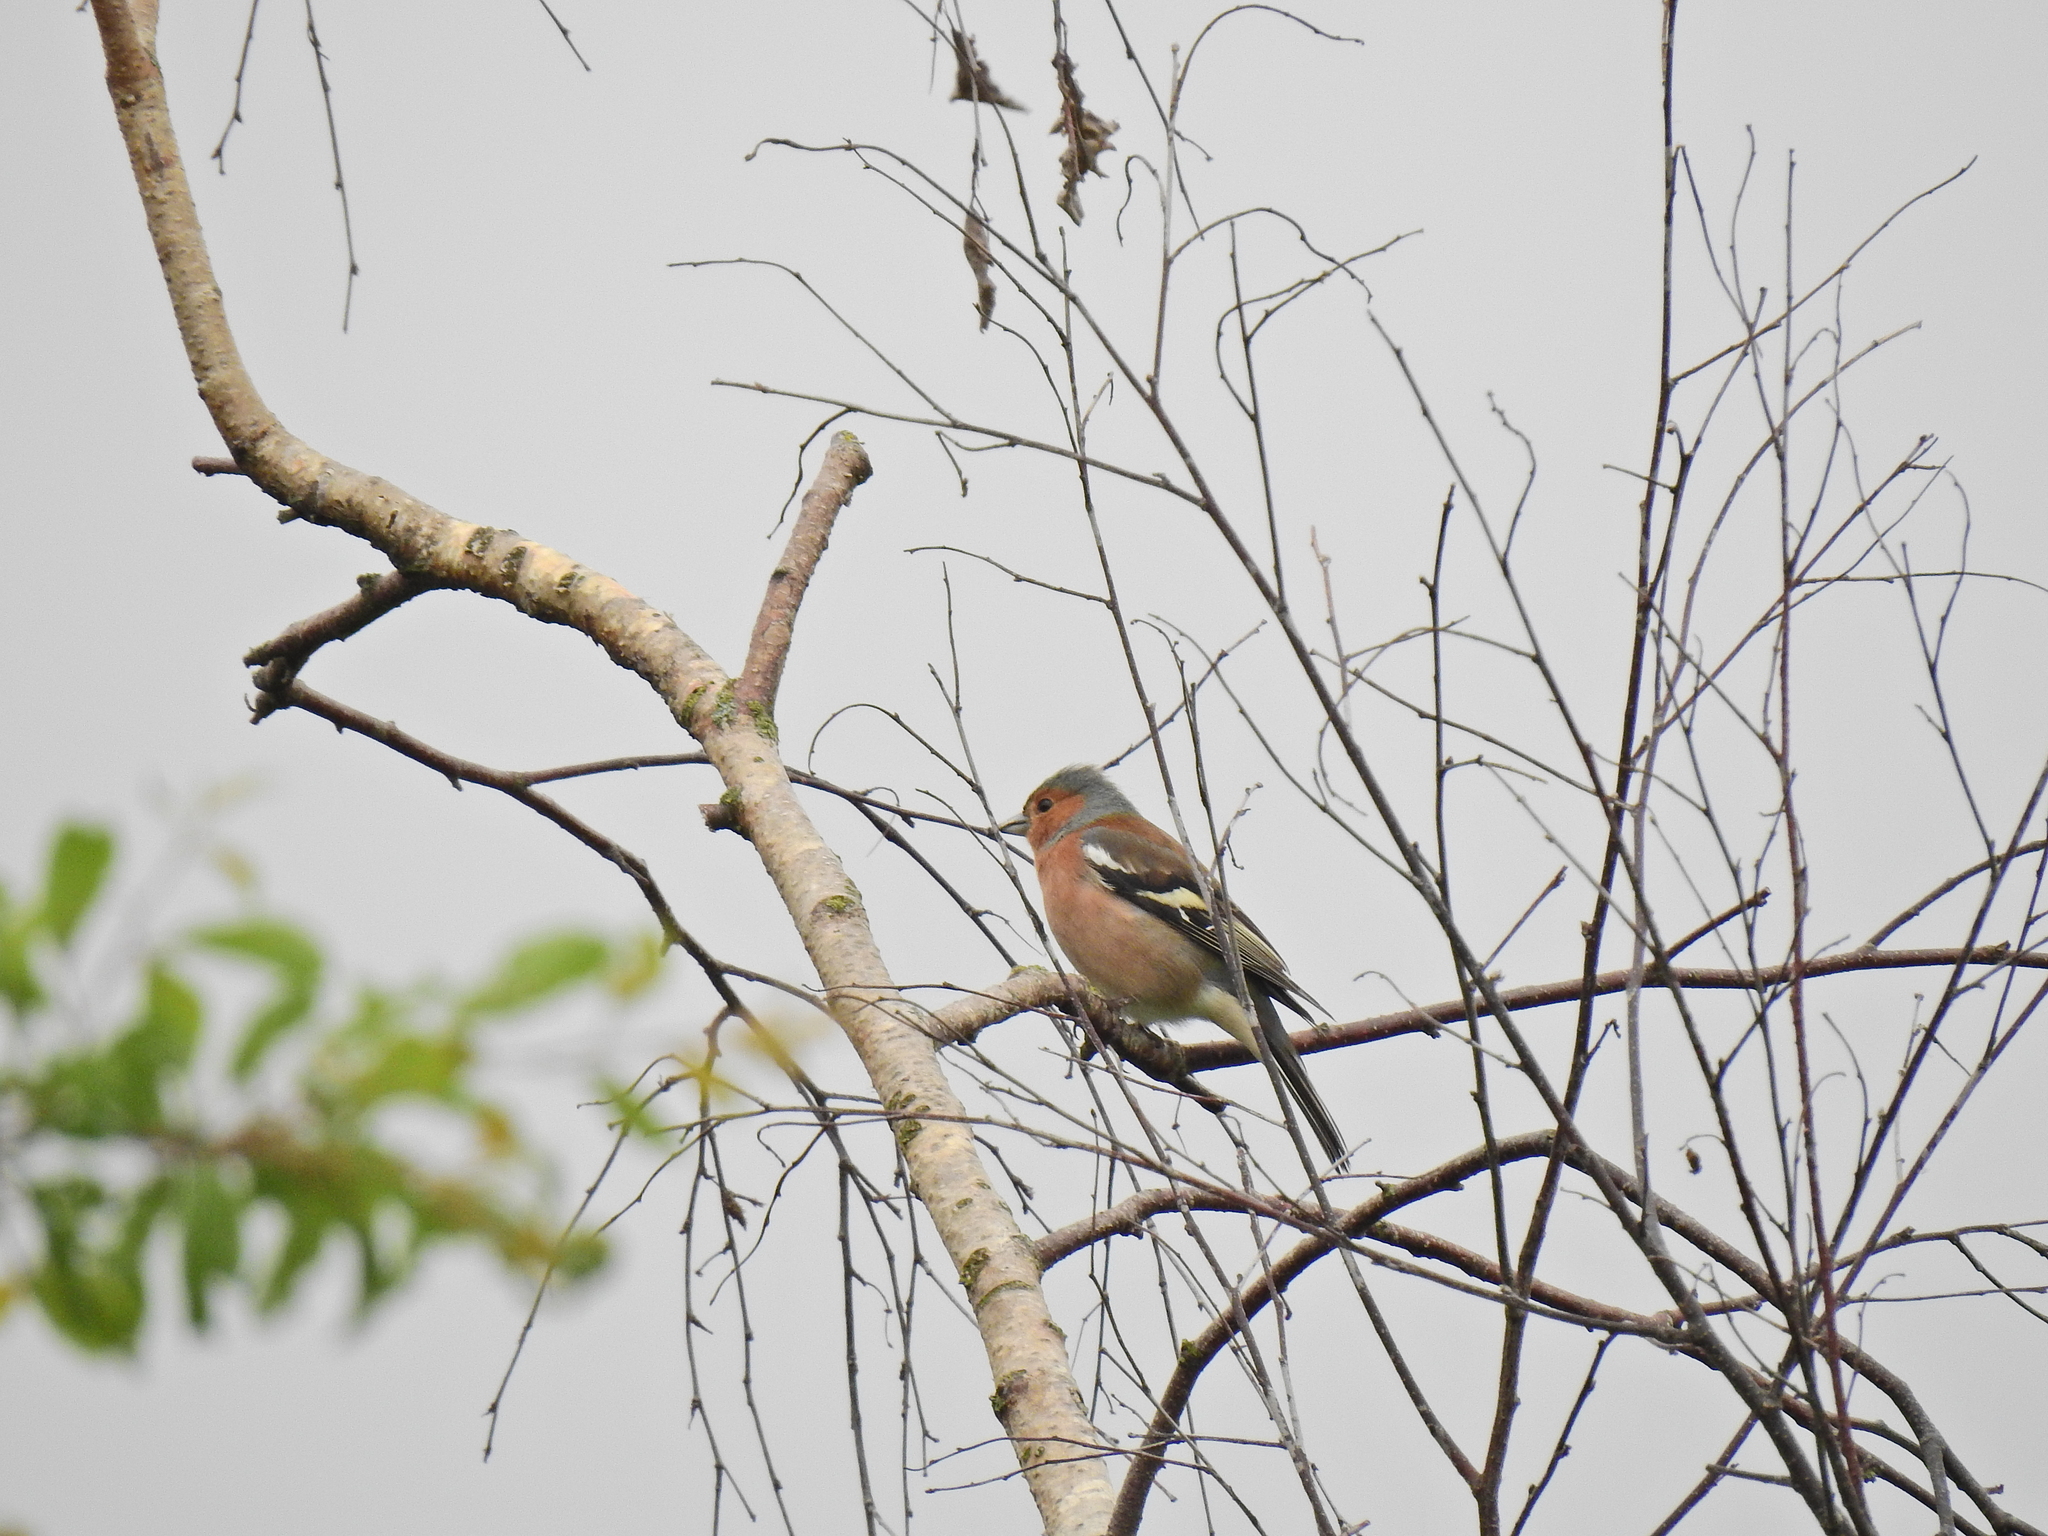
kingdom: Animalia
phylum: Chordata
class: Aves
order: Passeriformes
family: Fringillidae
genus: Fringilla
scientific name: Fringilla coelebs
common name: Common chaffinch
